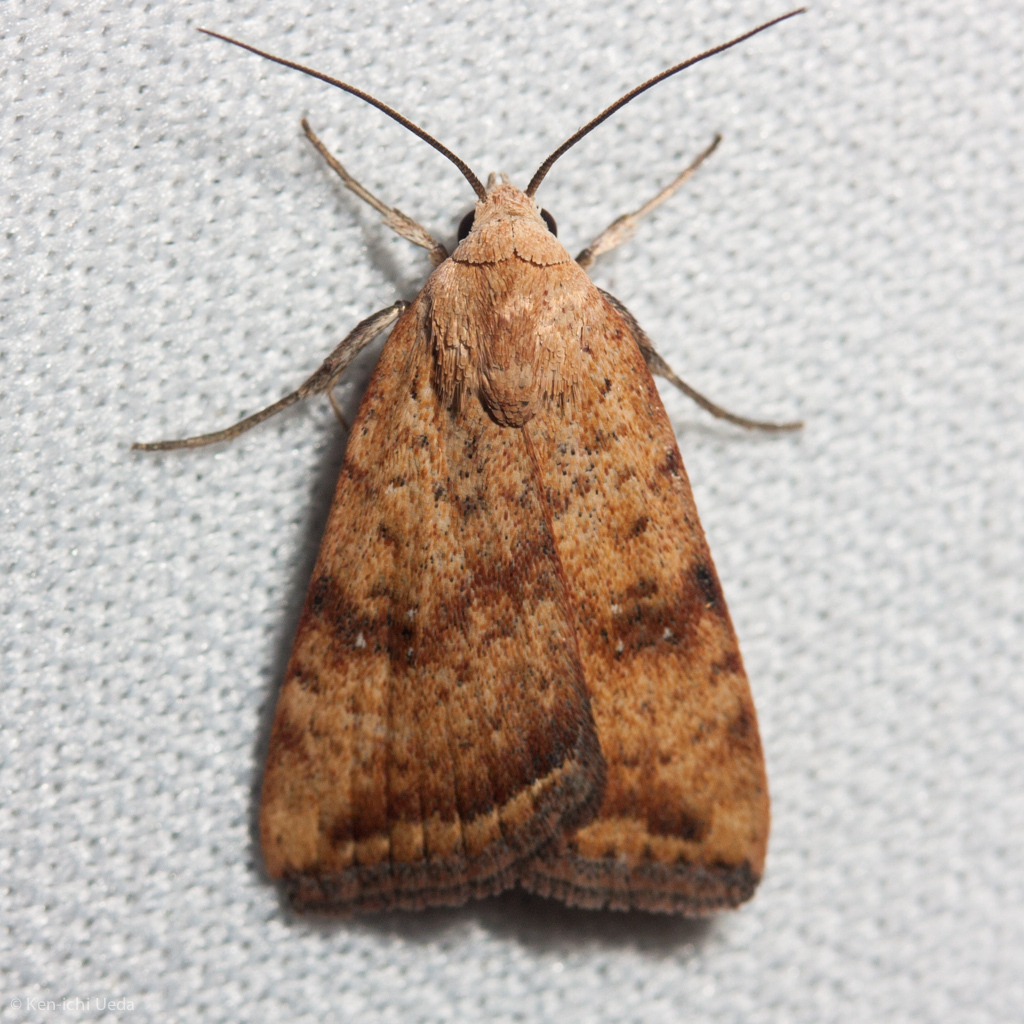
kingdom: Animalia
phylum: Arthropoda
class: Insecta
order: Lepidoptera
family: Noctuidae
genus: Micrathetis
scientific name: Micrathetis triplex
